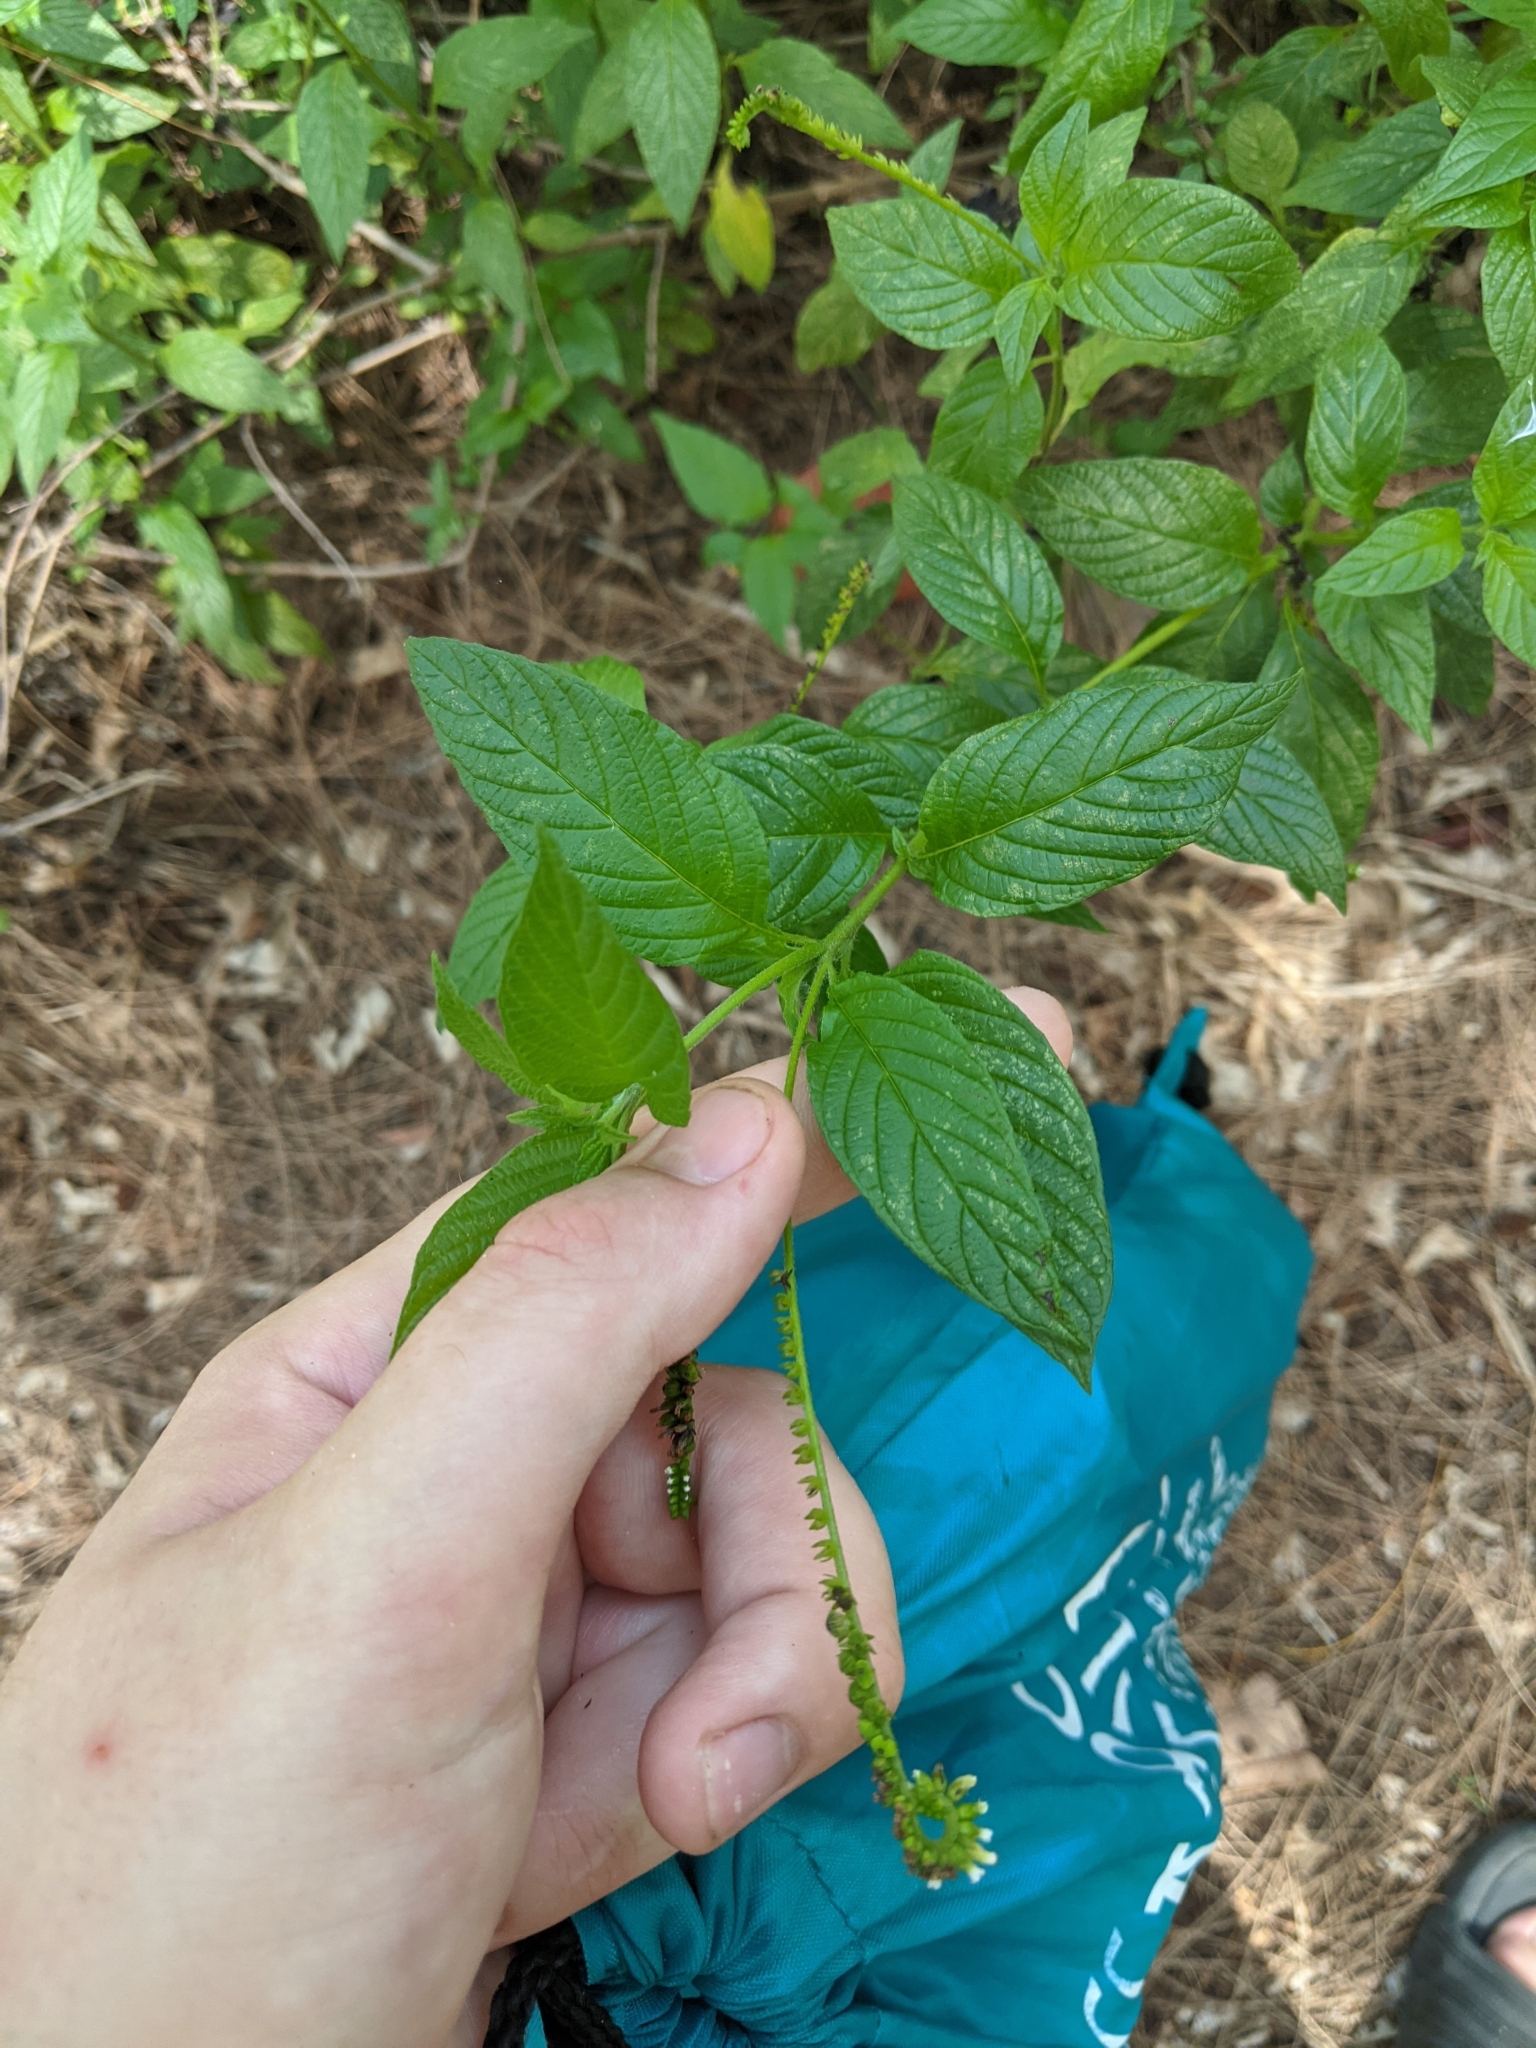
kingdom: Plantae
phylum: Tracheophyta
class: Magnoliopsida
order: Boraginales
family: Heliotropiaceae
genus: Heliotropium
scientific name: Heliotropium angiospermum
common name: Eye bright
